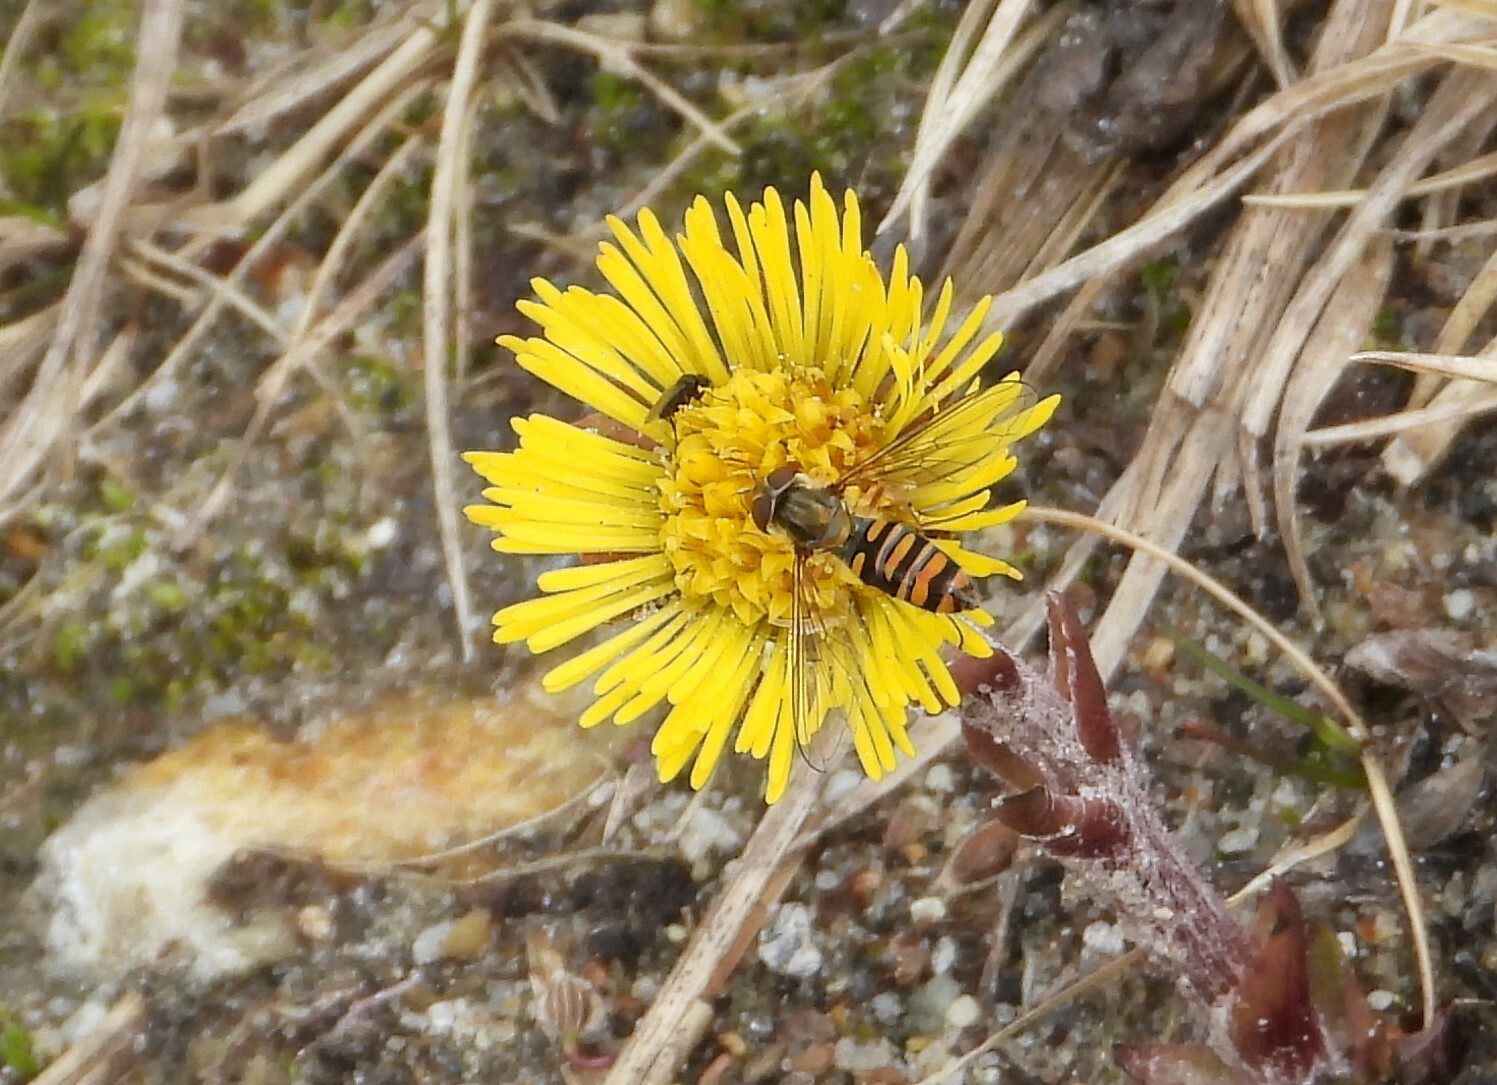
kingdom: Animalia
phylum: Arthropoda
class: Insecta
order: Diptera
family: Syrphidae
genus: Episyrphus
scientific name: Episyrphus balteatus
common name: Marmalade hoverfly
